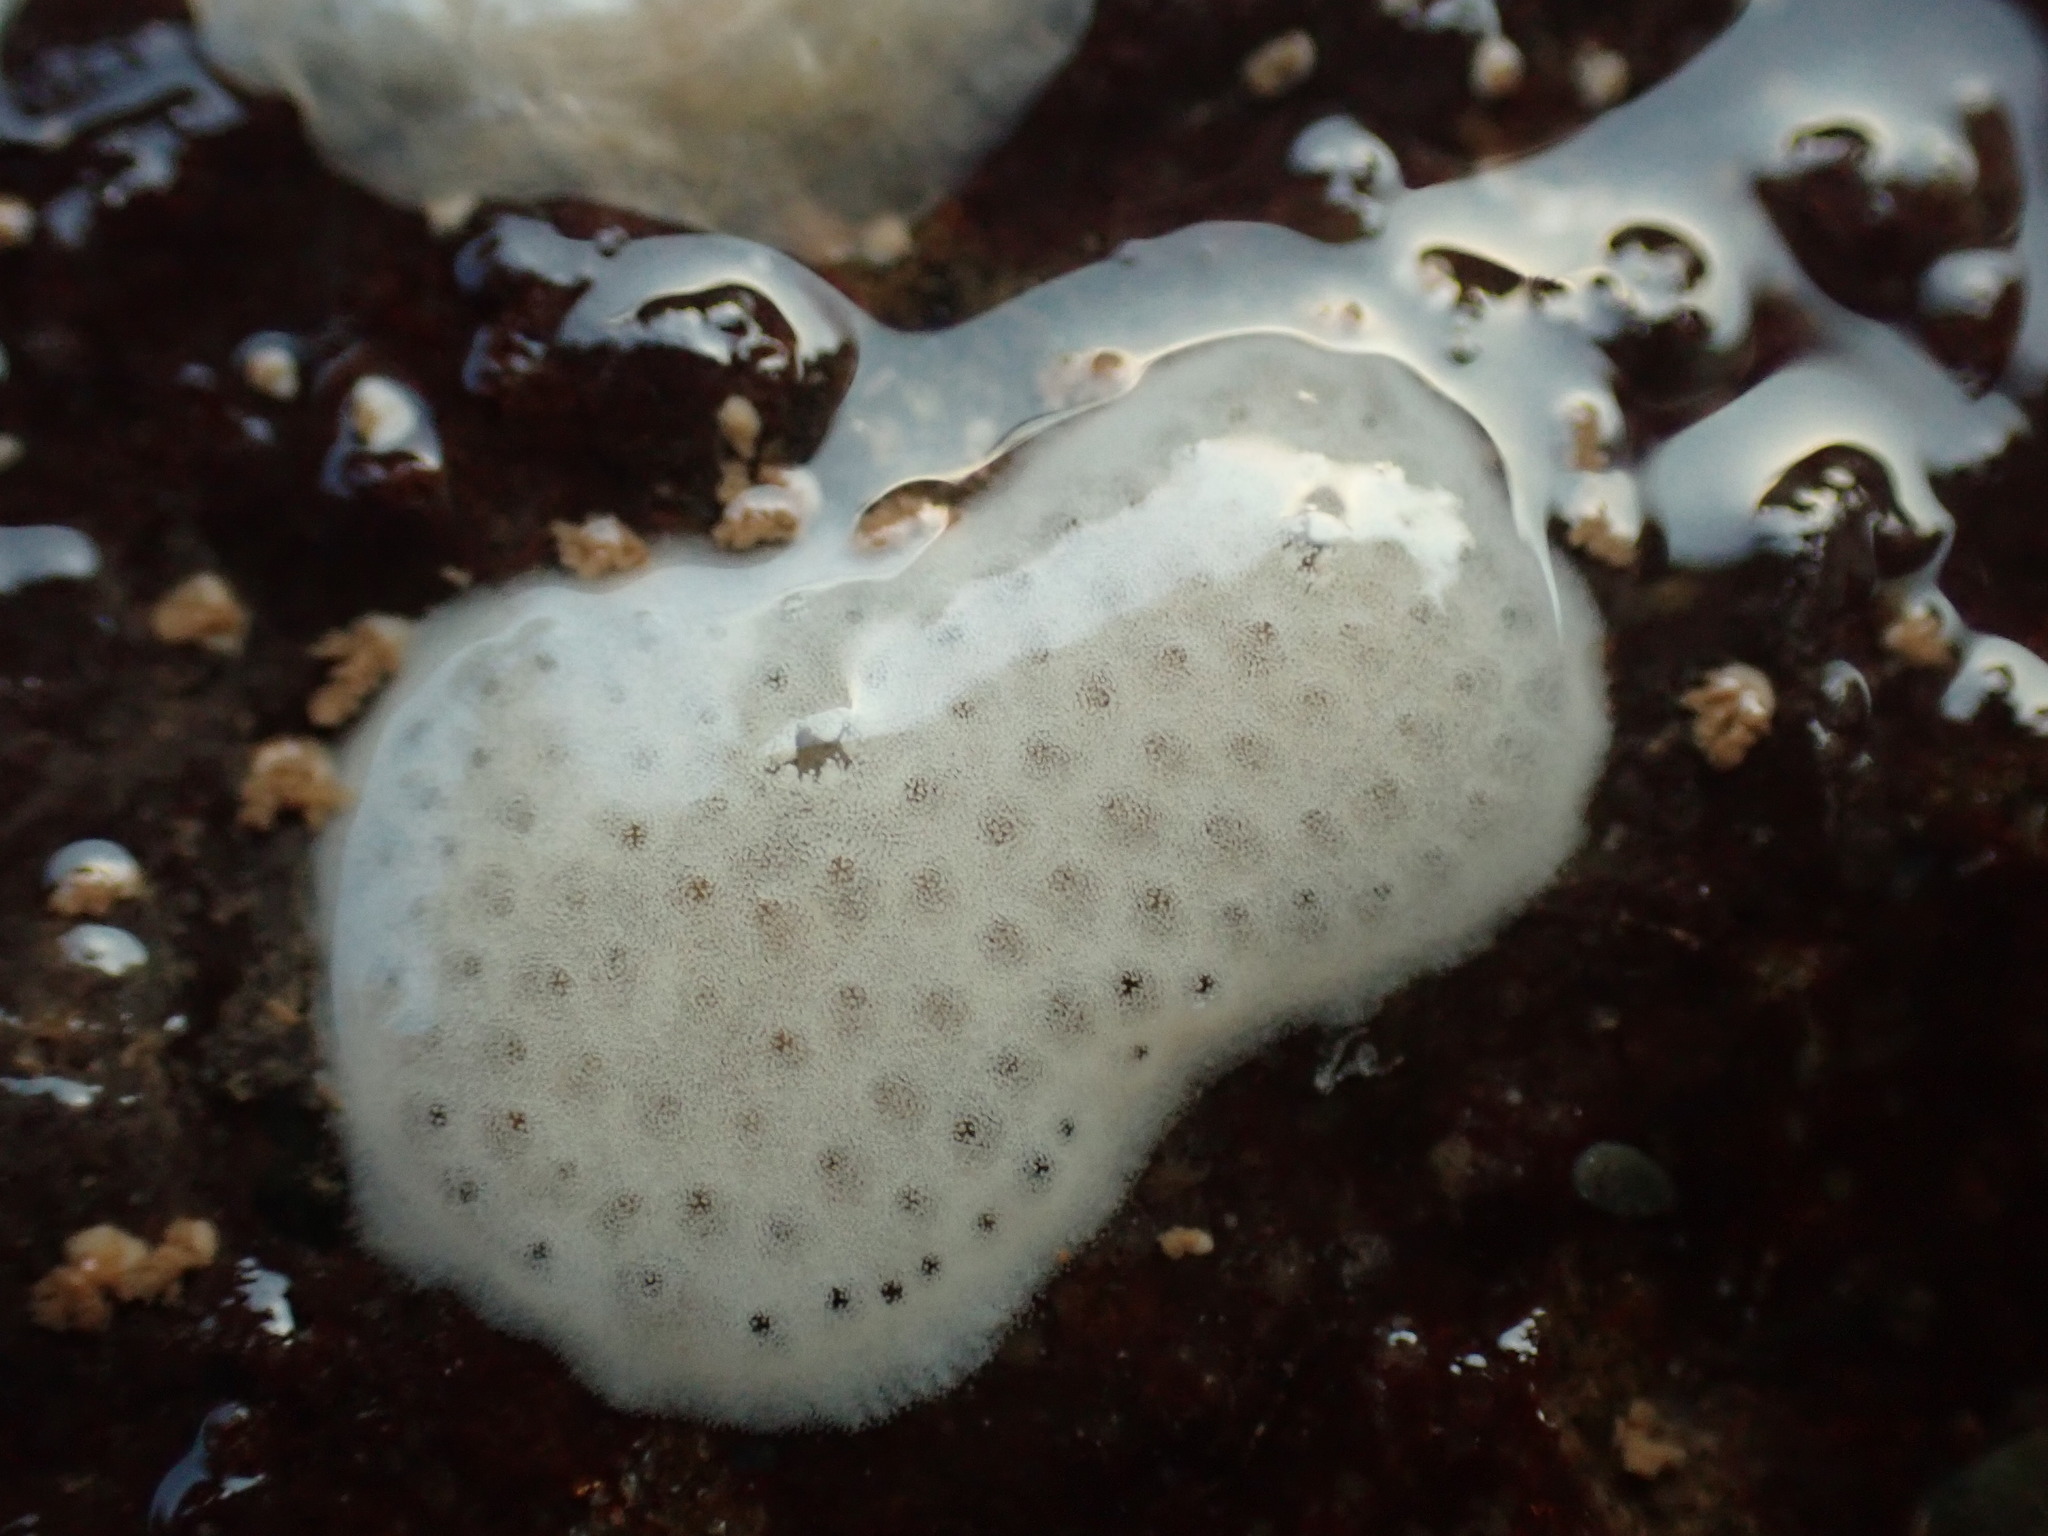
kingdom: Animalia
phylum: Chordata
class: Ascidiacea
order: Aplousobranchia
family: Didemnidae
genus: Didemnum
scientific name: Didemnum albidum
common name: Northern white crust
